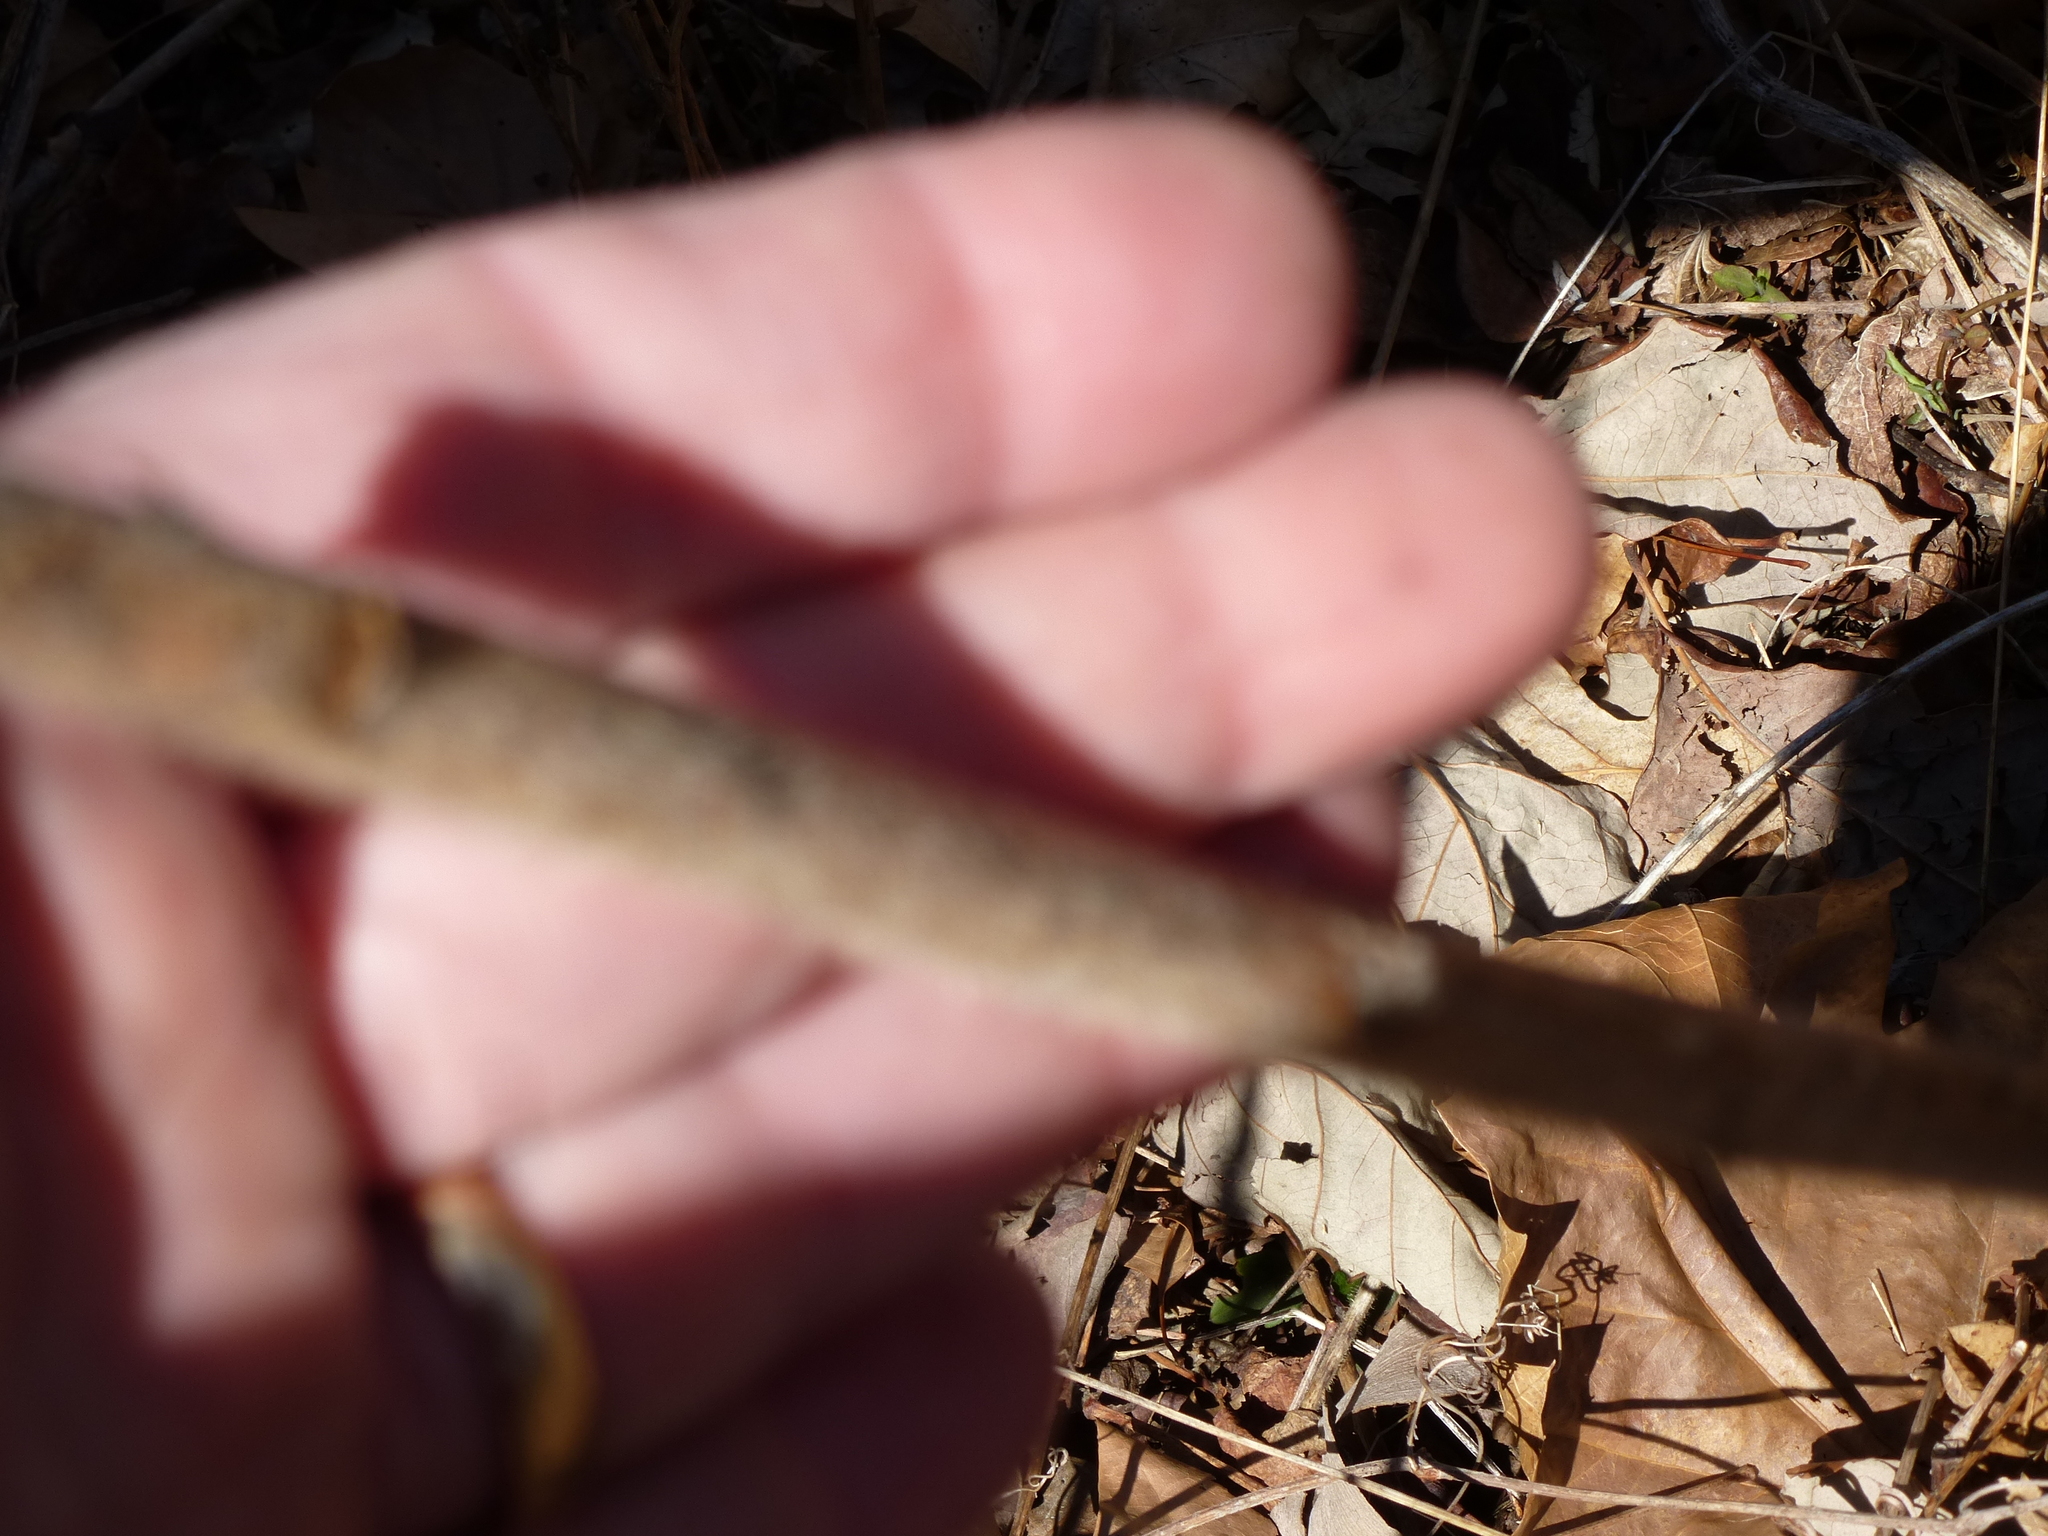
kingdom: Plantae
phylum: Tracheophyta
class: Magnoliopsida
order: Sapindales
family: Anacardiaceae
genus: Rhus
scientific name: Rhus typhina
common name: Staghorn sumac
